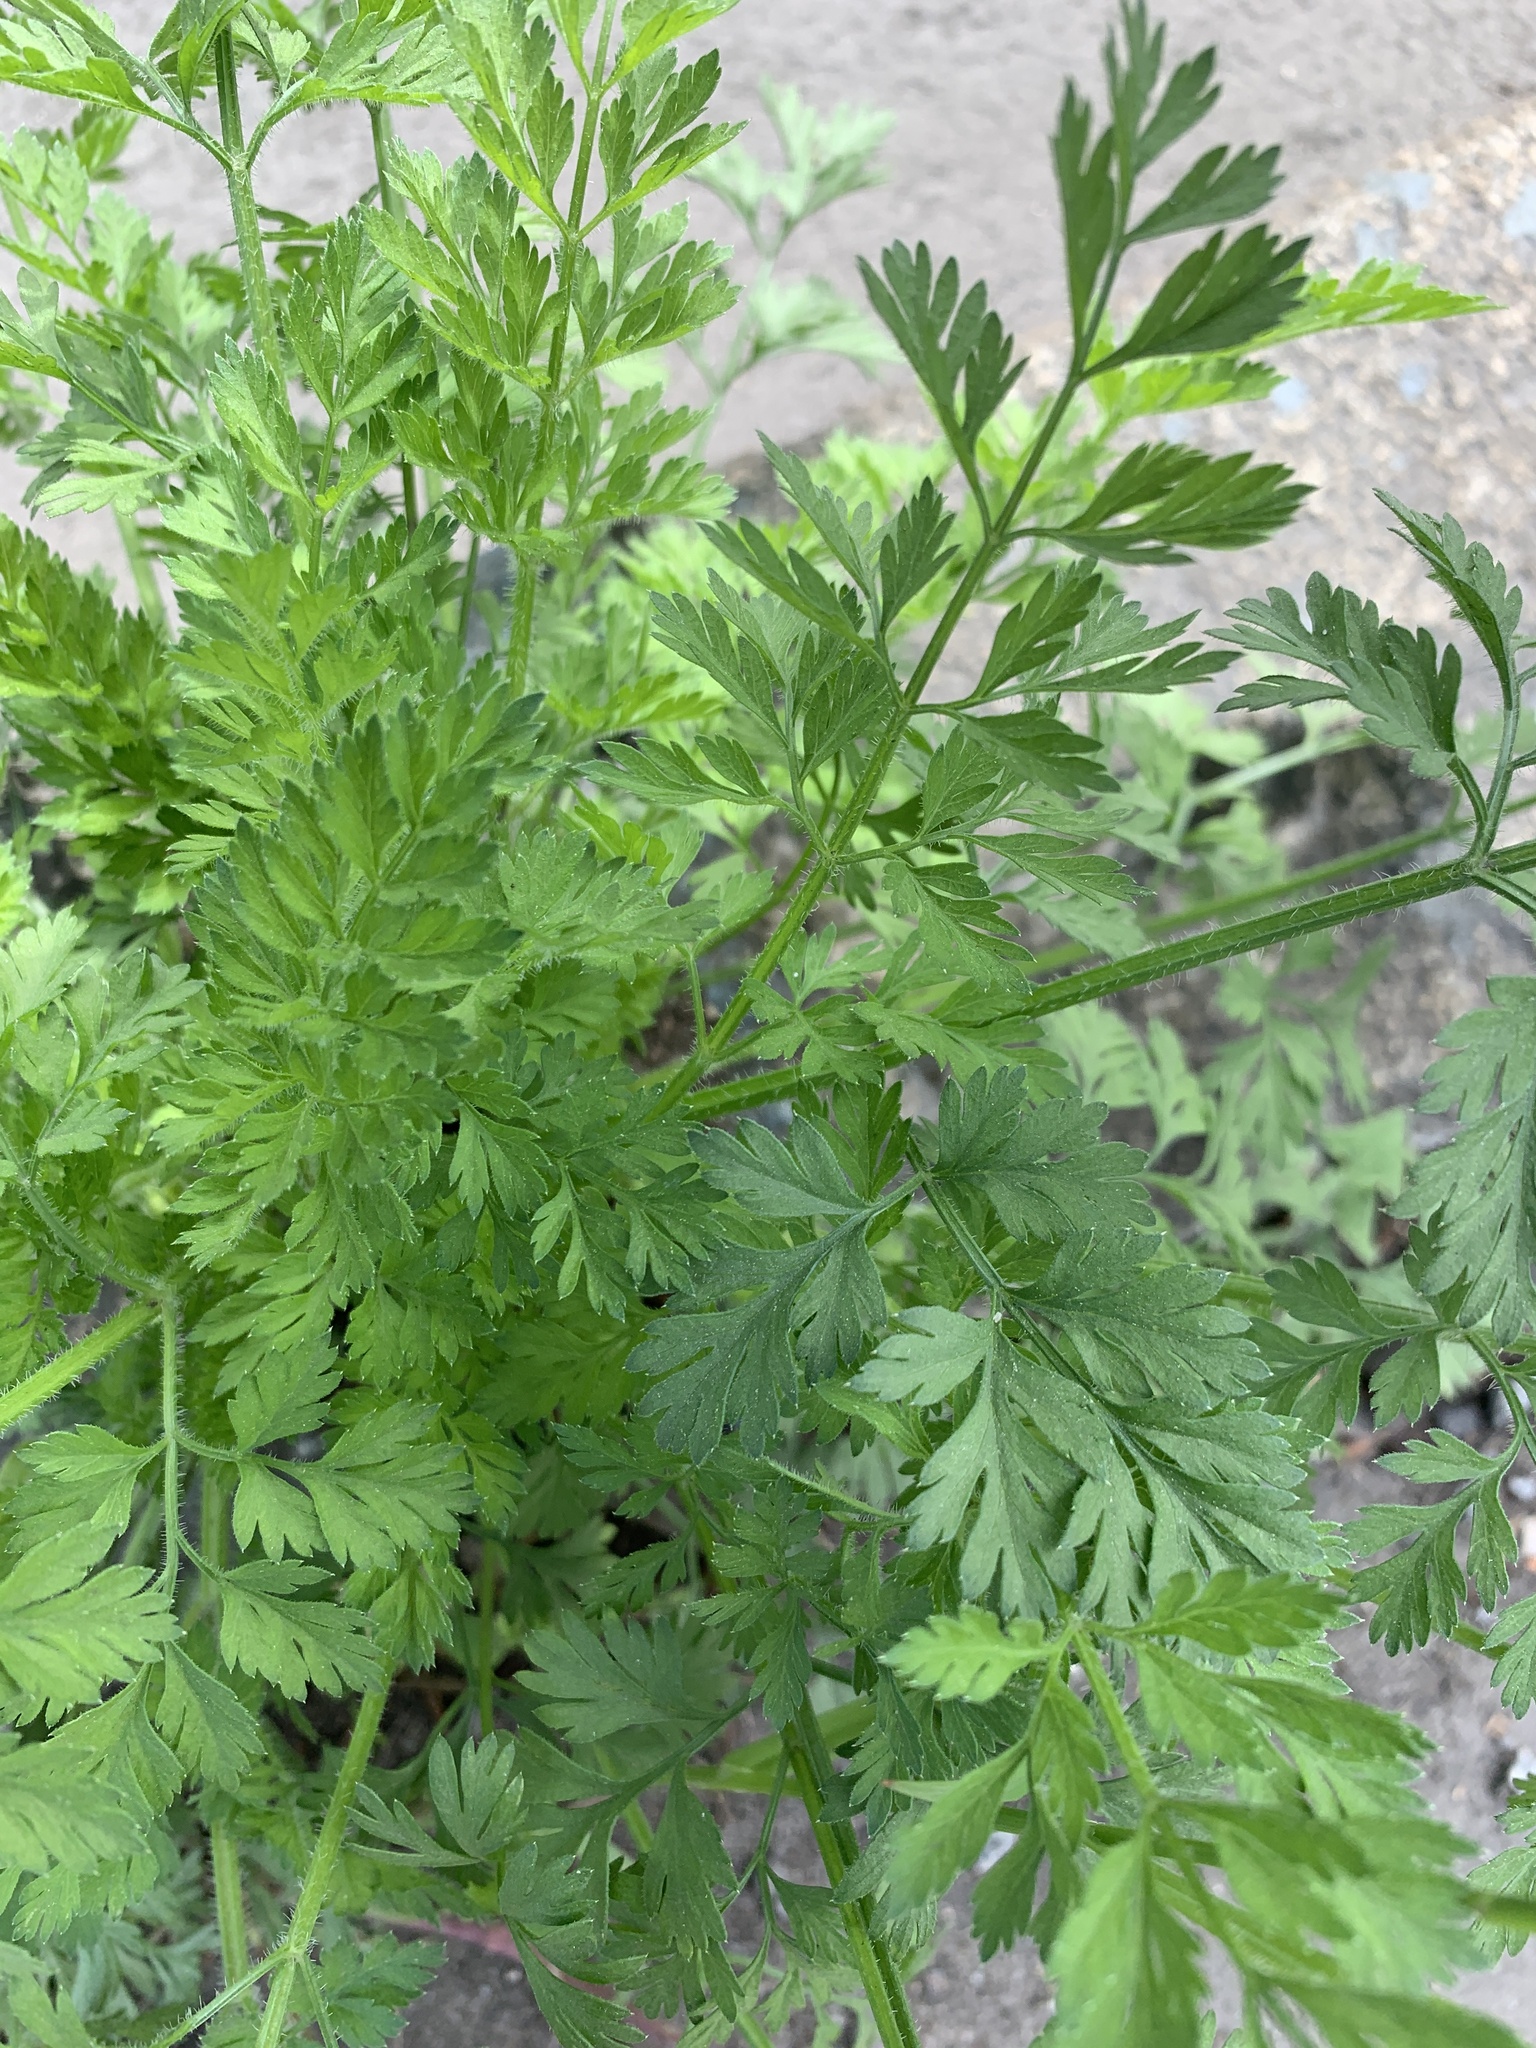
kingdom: Plantae
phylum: Tracheophyta
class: Magnoliopsida
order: Apiales
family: Apiaceae
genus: Daucus
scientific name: Daucus carota
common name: Wild carrot
